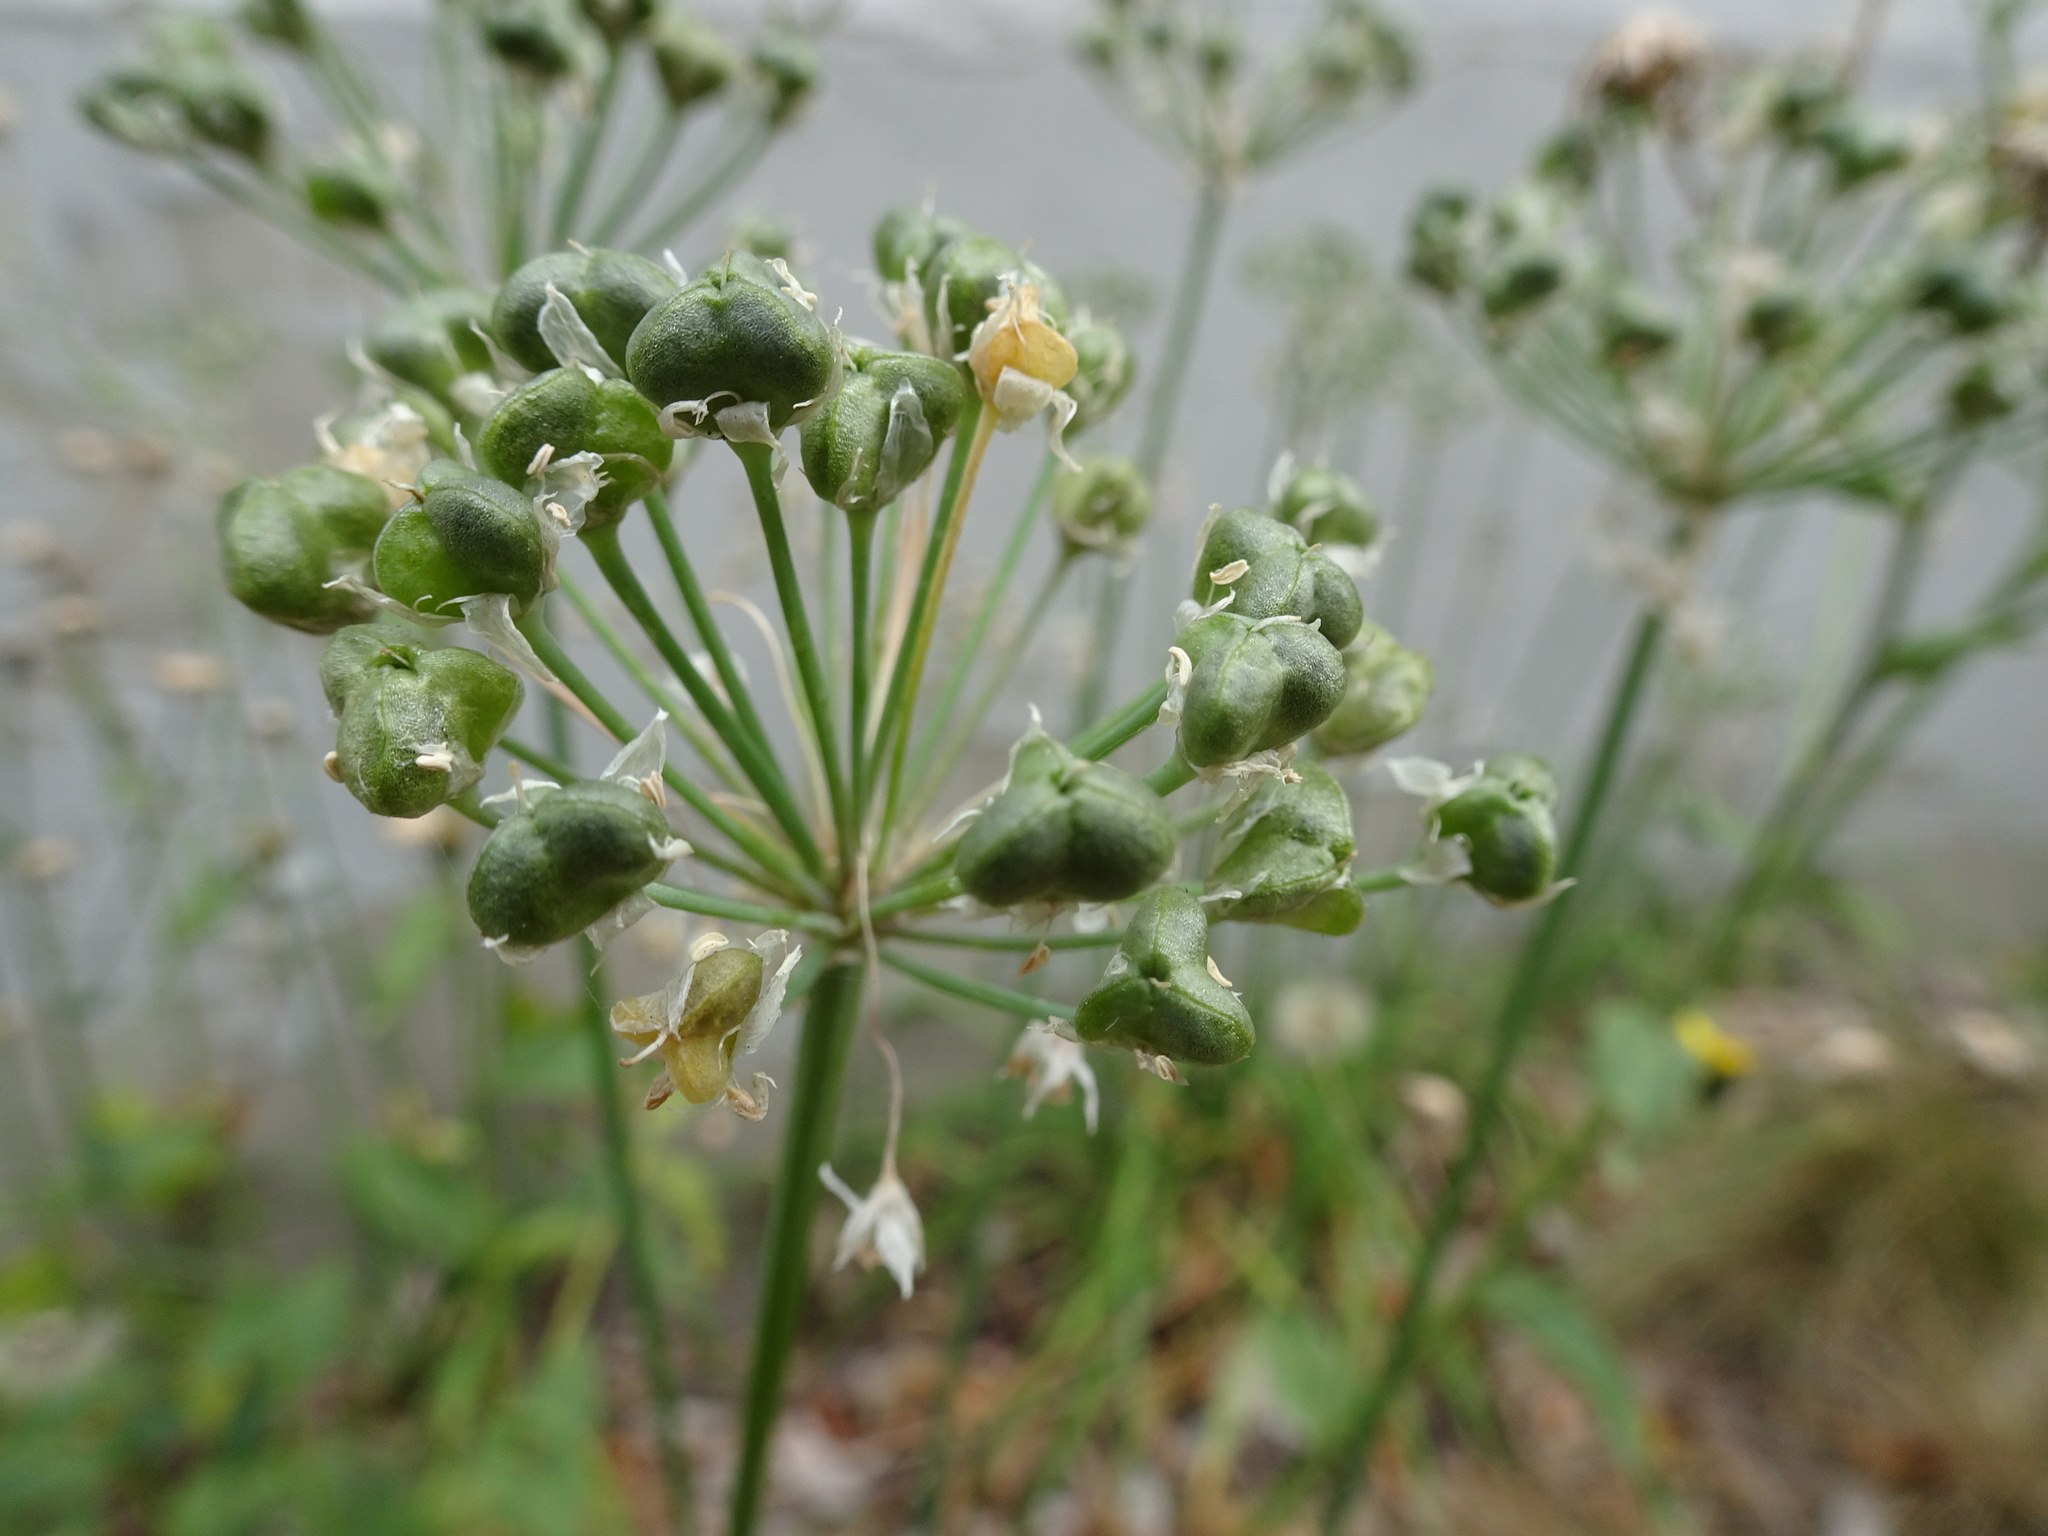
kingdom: Plantae
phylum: Tracheophyta
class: Liliopsida
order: Asparagales
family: Amaryllidaceae
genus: Allium
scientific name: Allium tuberosum
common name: Chinese chives
